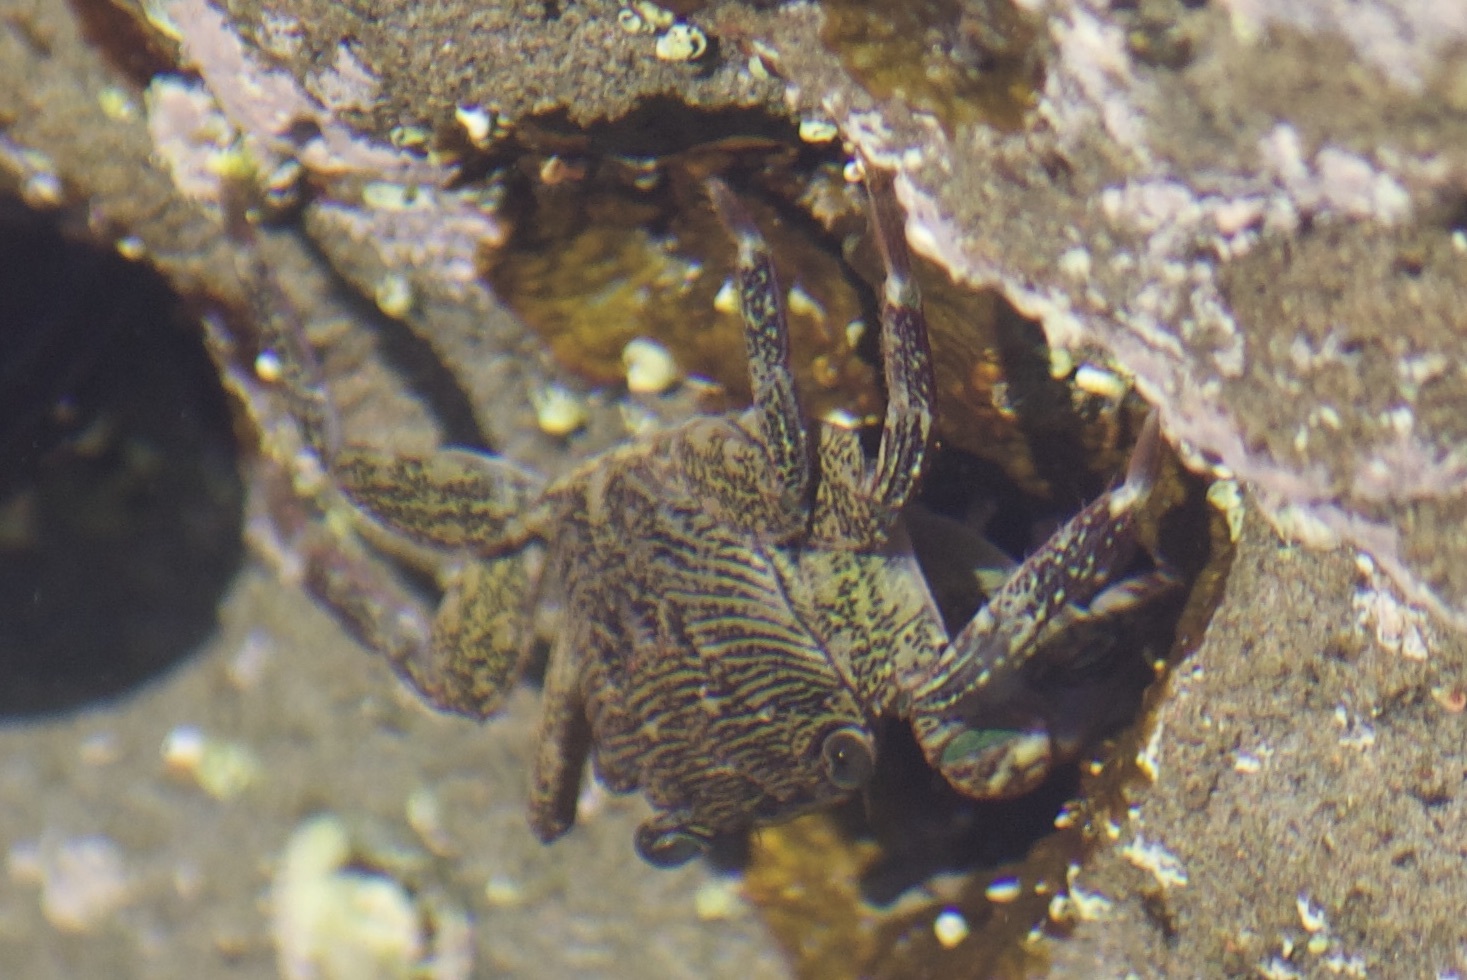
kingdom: Animalia
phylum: Arthropoda
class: Malacostraca
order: Decapoda
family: Grapsidae
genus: Pachygrapsus
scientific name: Pachygrapsus crassipes
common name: Striped shore crab
